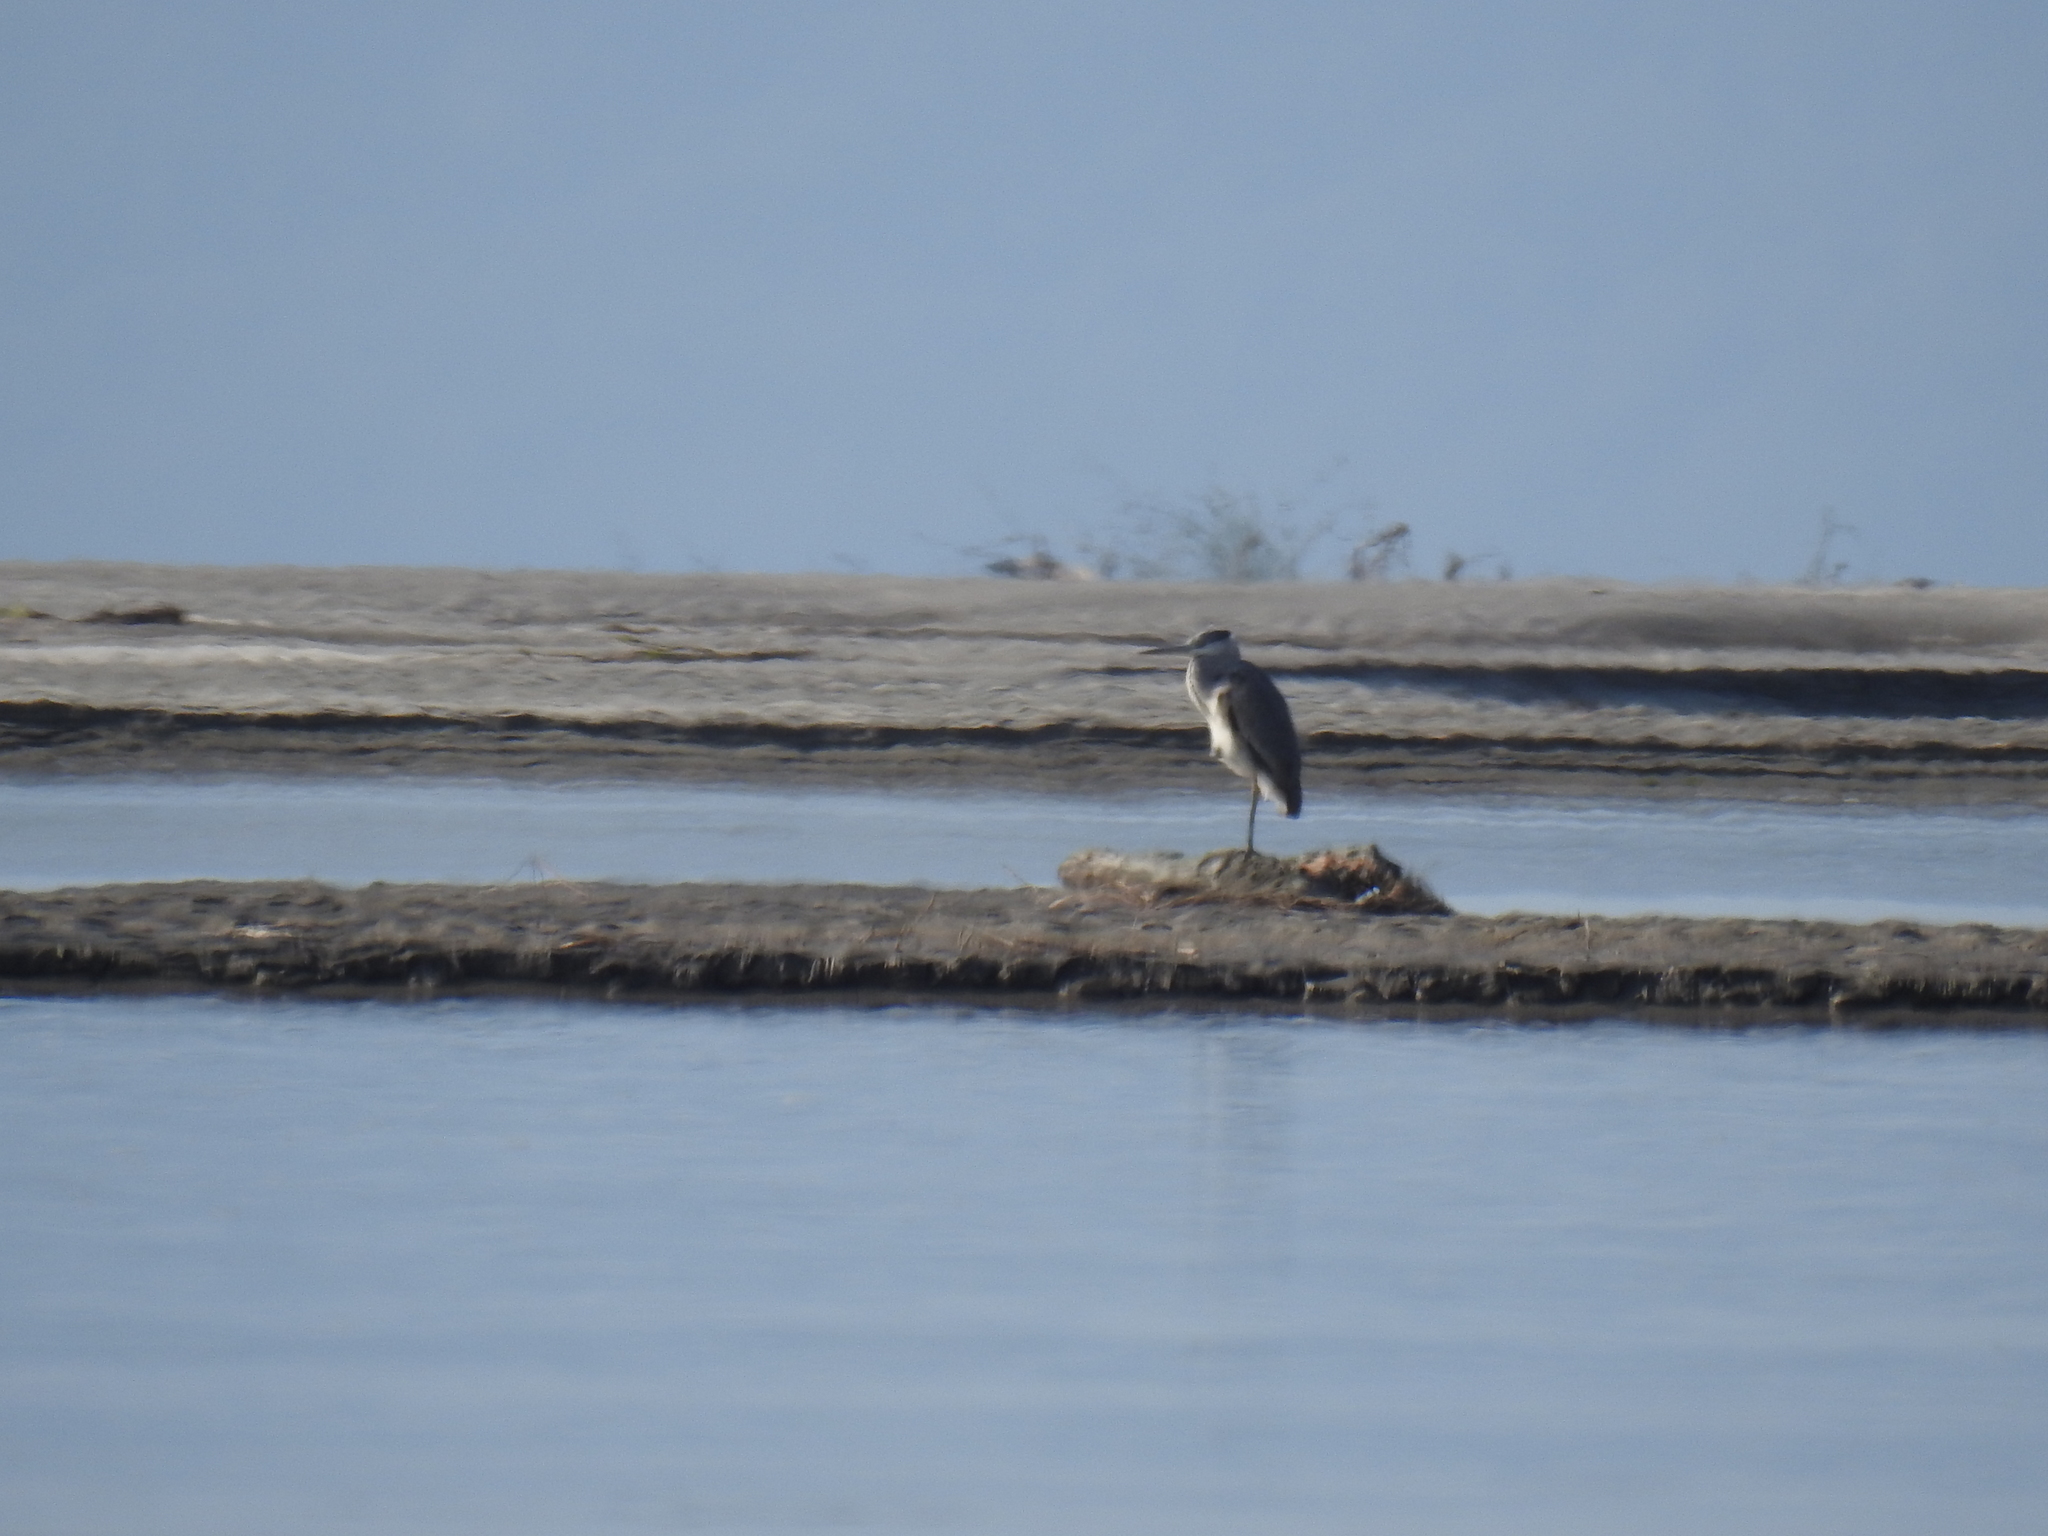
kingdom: Animalia
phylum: Chordata
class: Aves
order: Pelecaniformes
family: Ardeidae
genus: Ardea
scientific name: Ardea cinerea
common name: Grey heron
